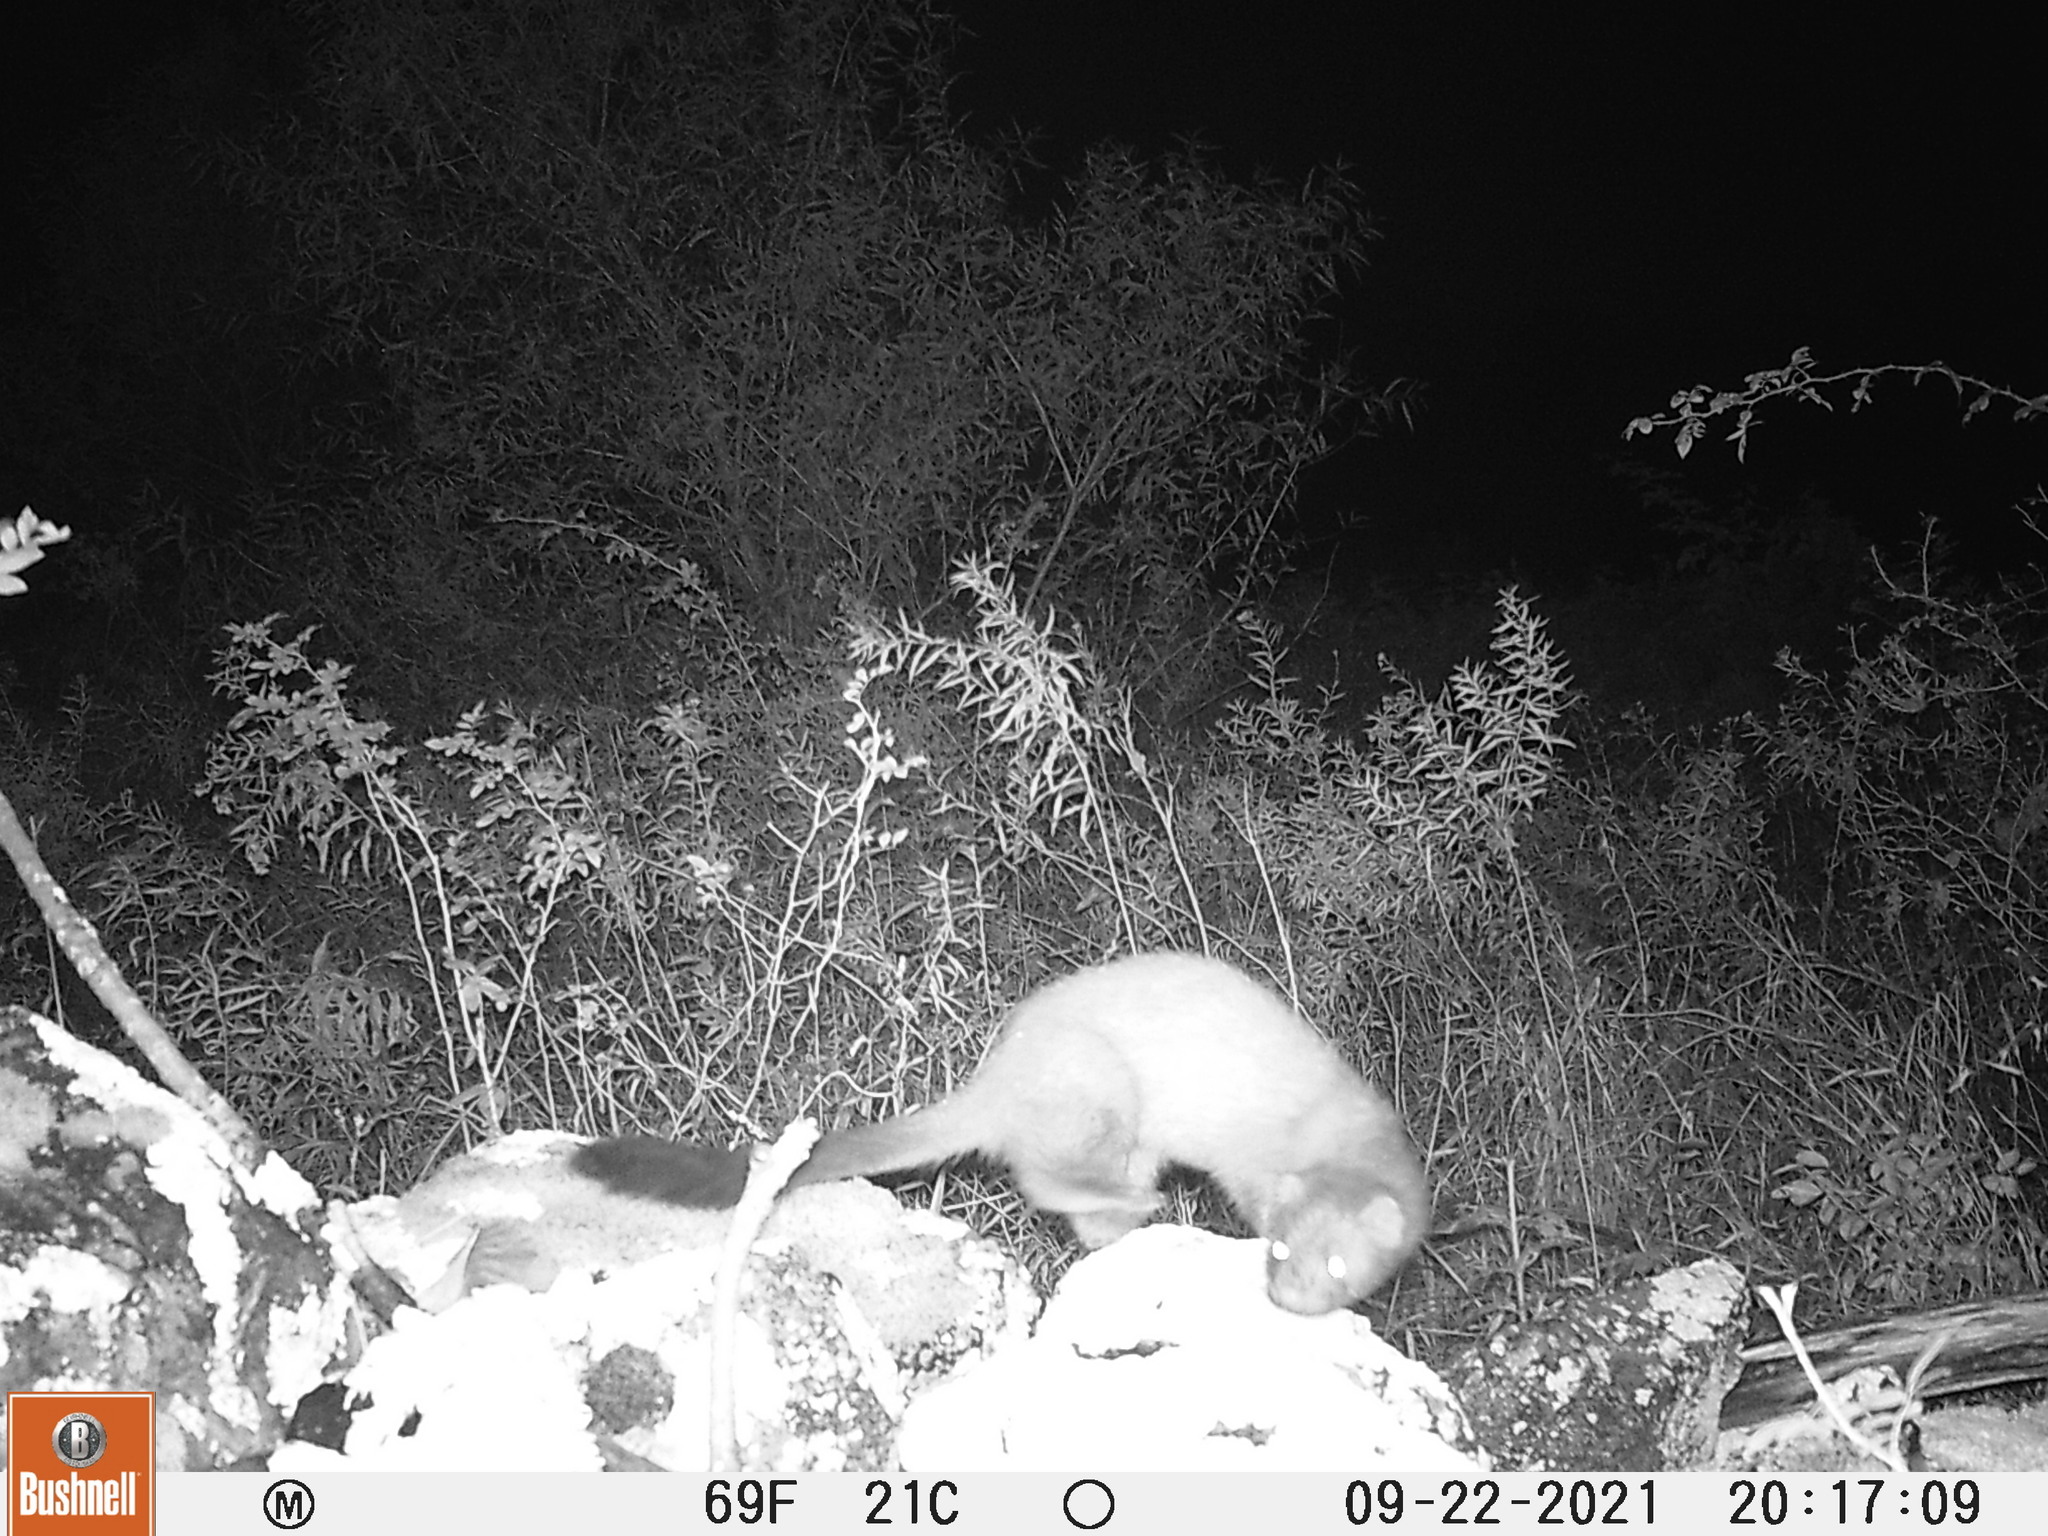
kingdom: Animalia
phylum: Chordata
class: Mammalia
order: Carnivora
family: Mustelidae
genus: Mustela
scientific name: Mustela
